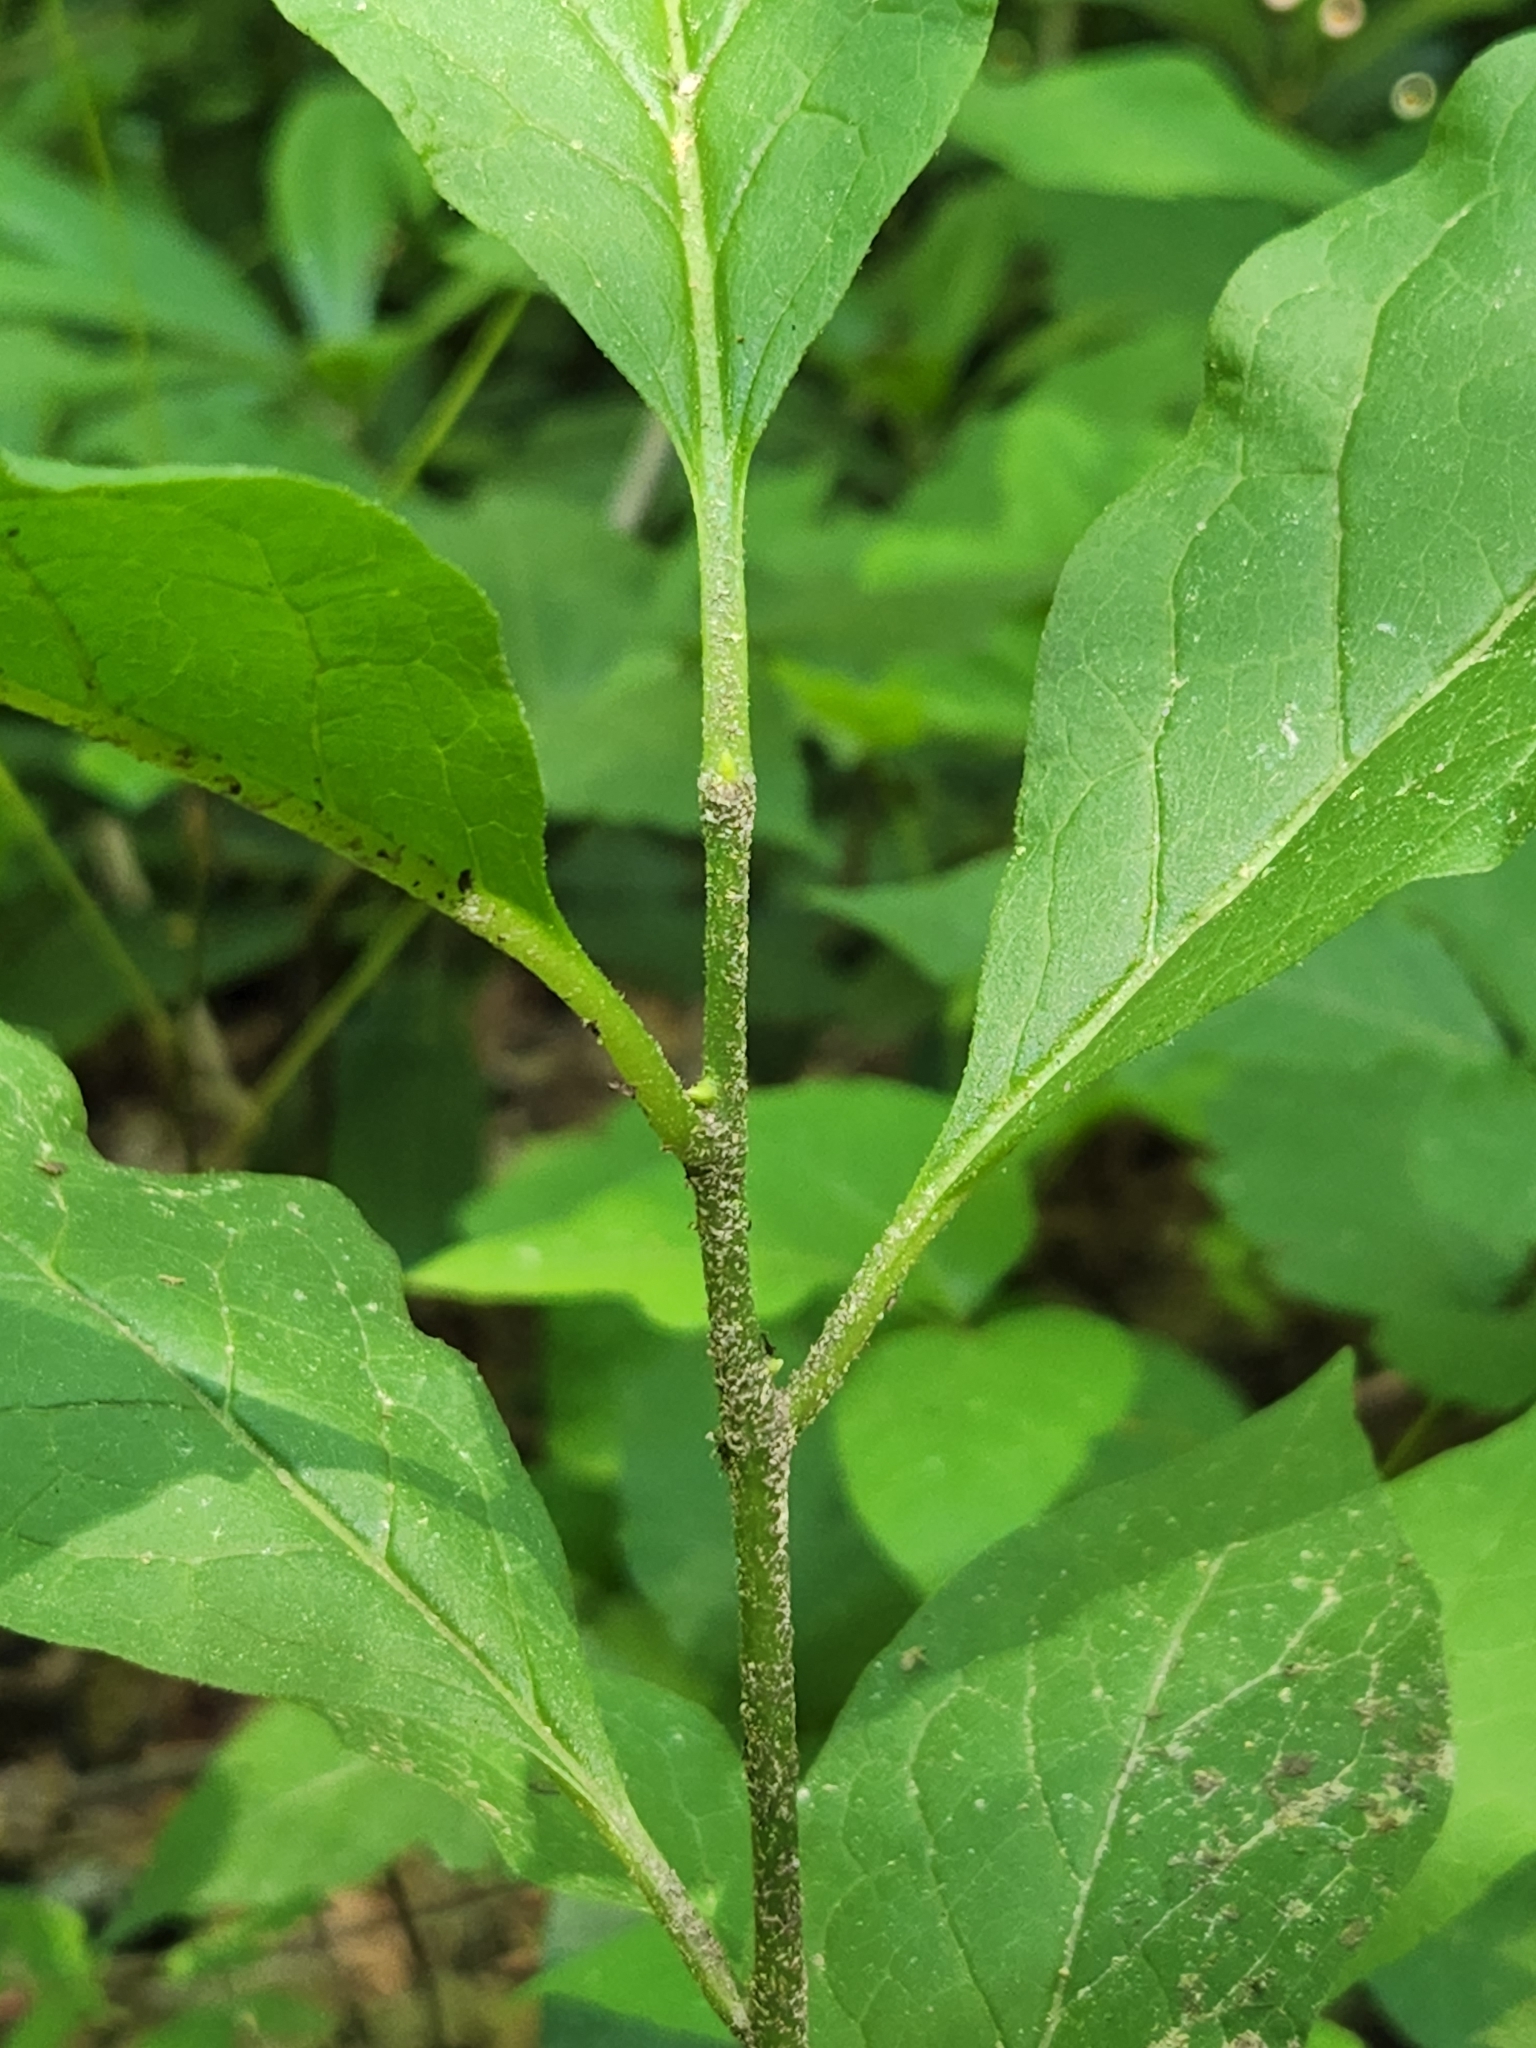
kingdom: Plantae
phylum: Tracheophyta
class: Magnoliopsida
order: Santalales
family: Cervantesiaceae
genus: Pyrularia
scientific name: Pyrularia pubera
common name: Oilnut
